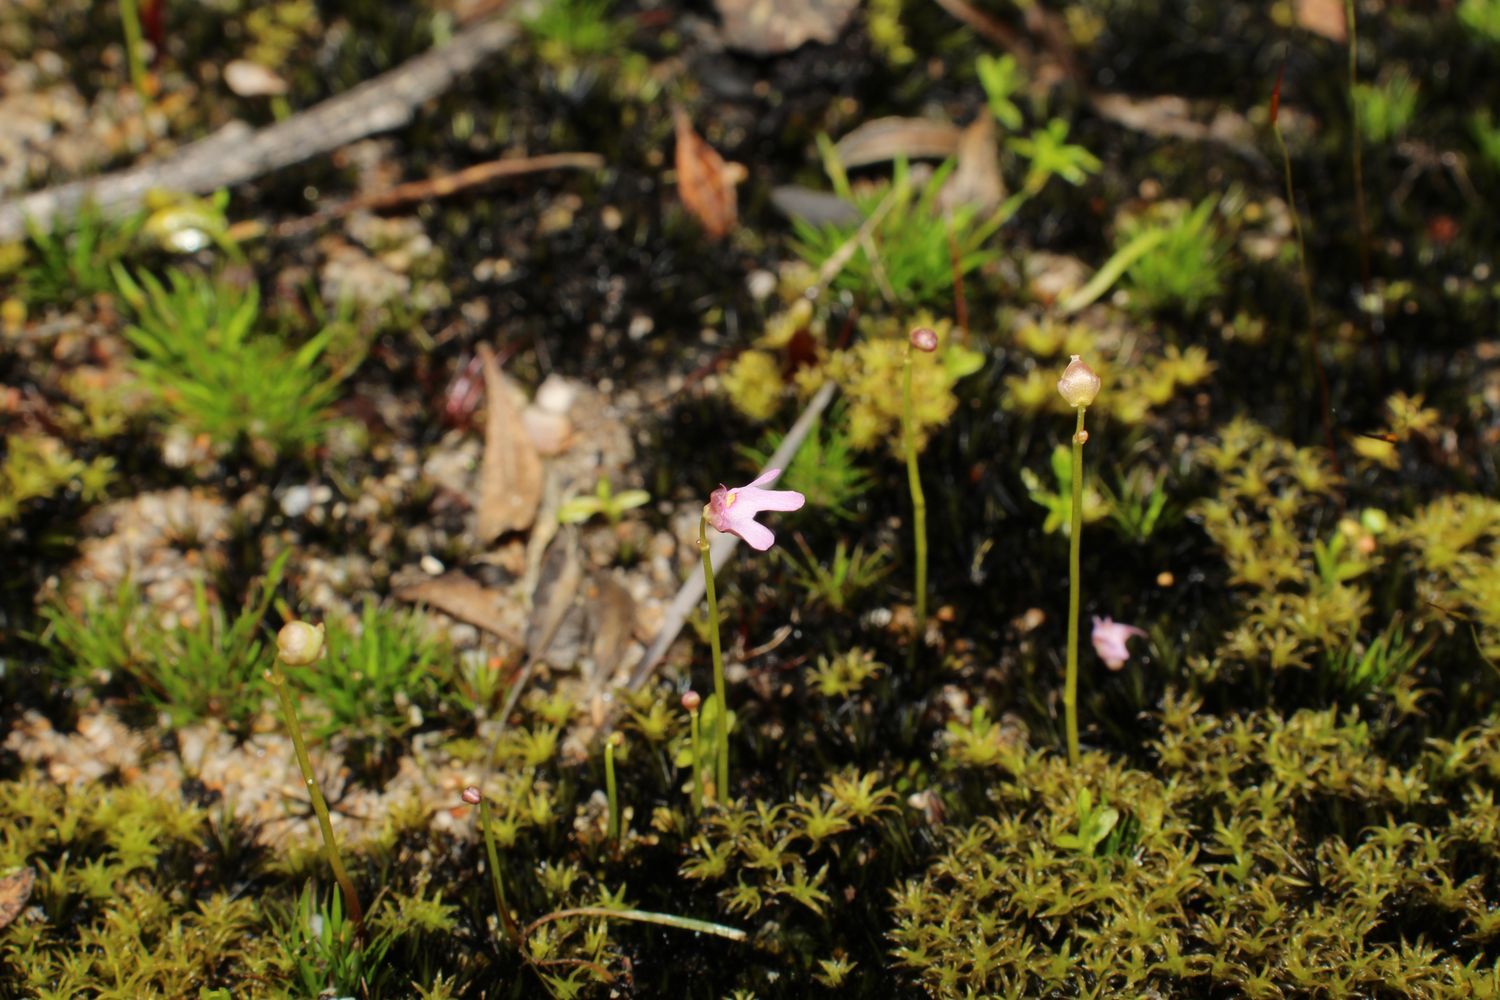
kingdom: Plantae
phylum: Tracheophyta
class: Magnoliopsida
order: Lamiales
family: Lentibulariaceae
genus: Utricularia
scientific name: Utricularia tenella
